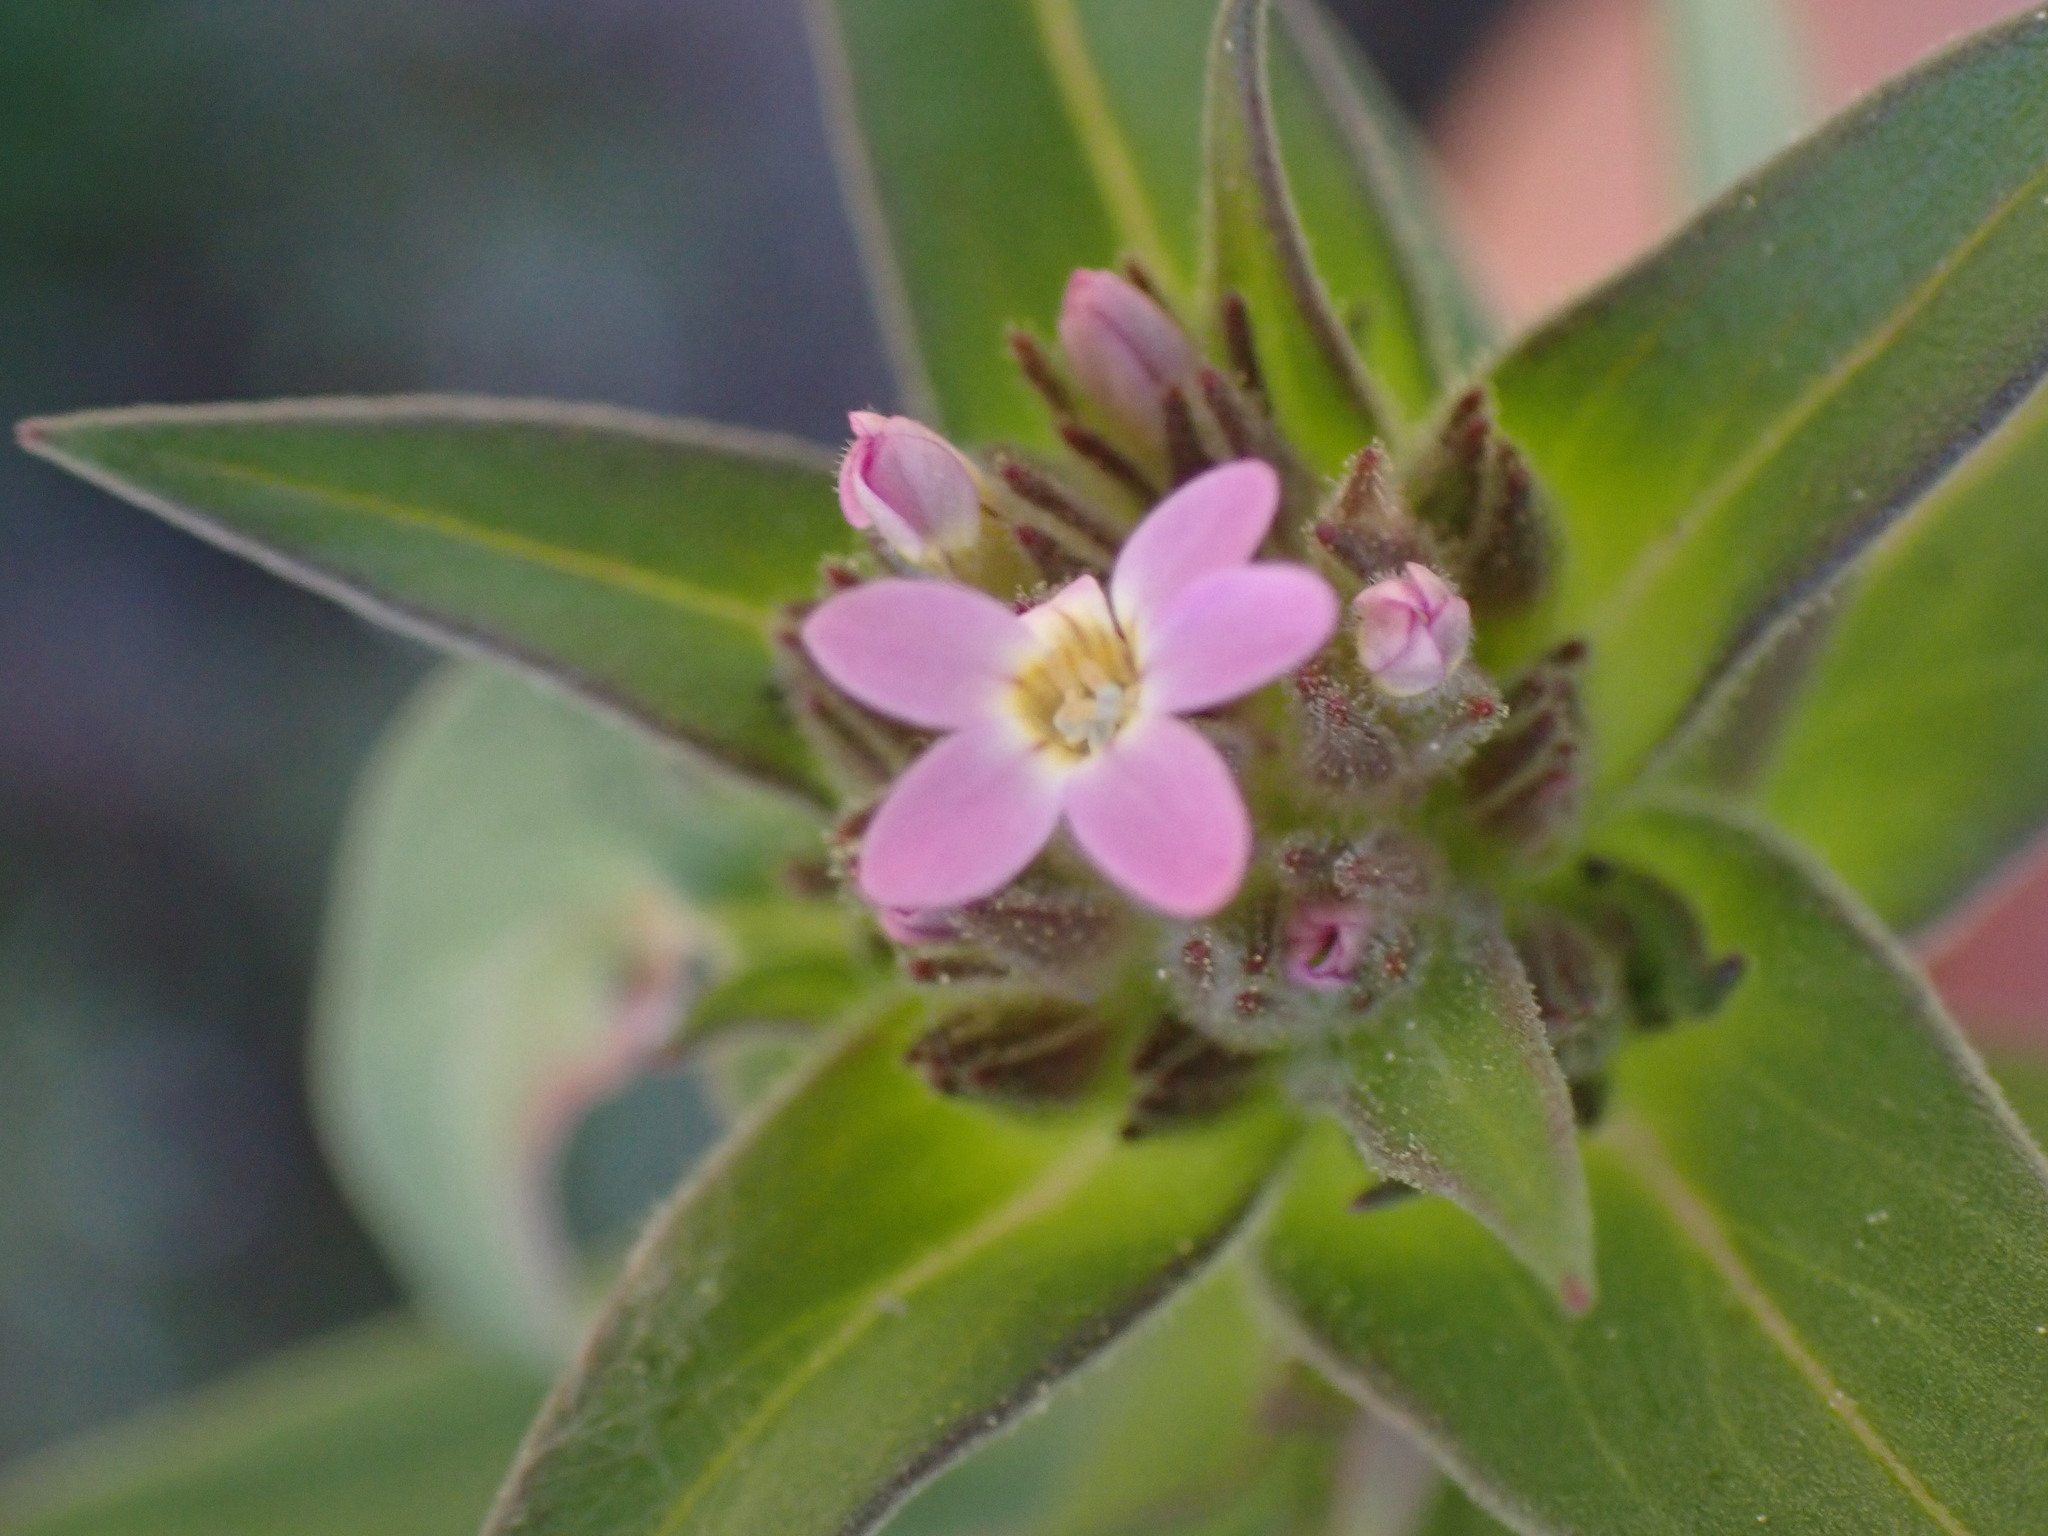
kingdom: Plantae
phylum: Tracheophyta
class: Magnoliopsida
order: Ericales
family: Polemoniaceae
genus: Collomia
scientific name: Collomia linearis
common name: Tiny trumpet
